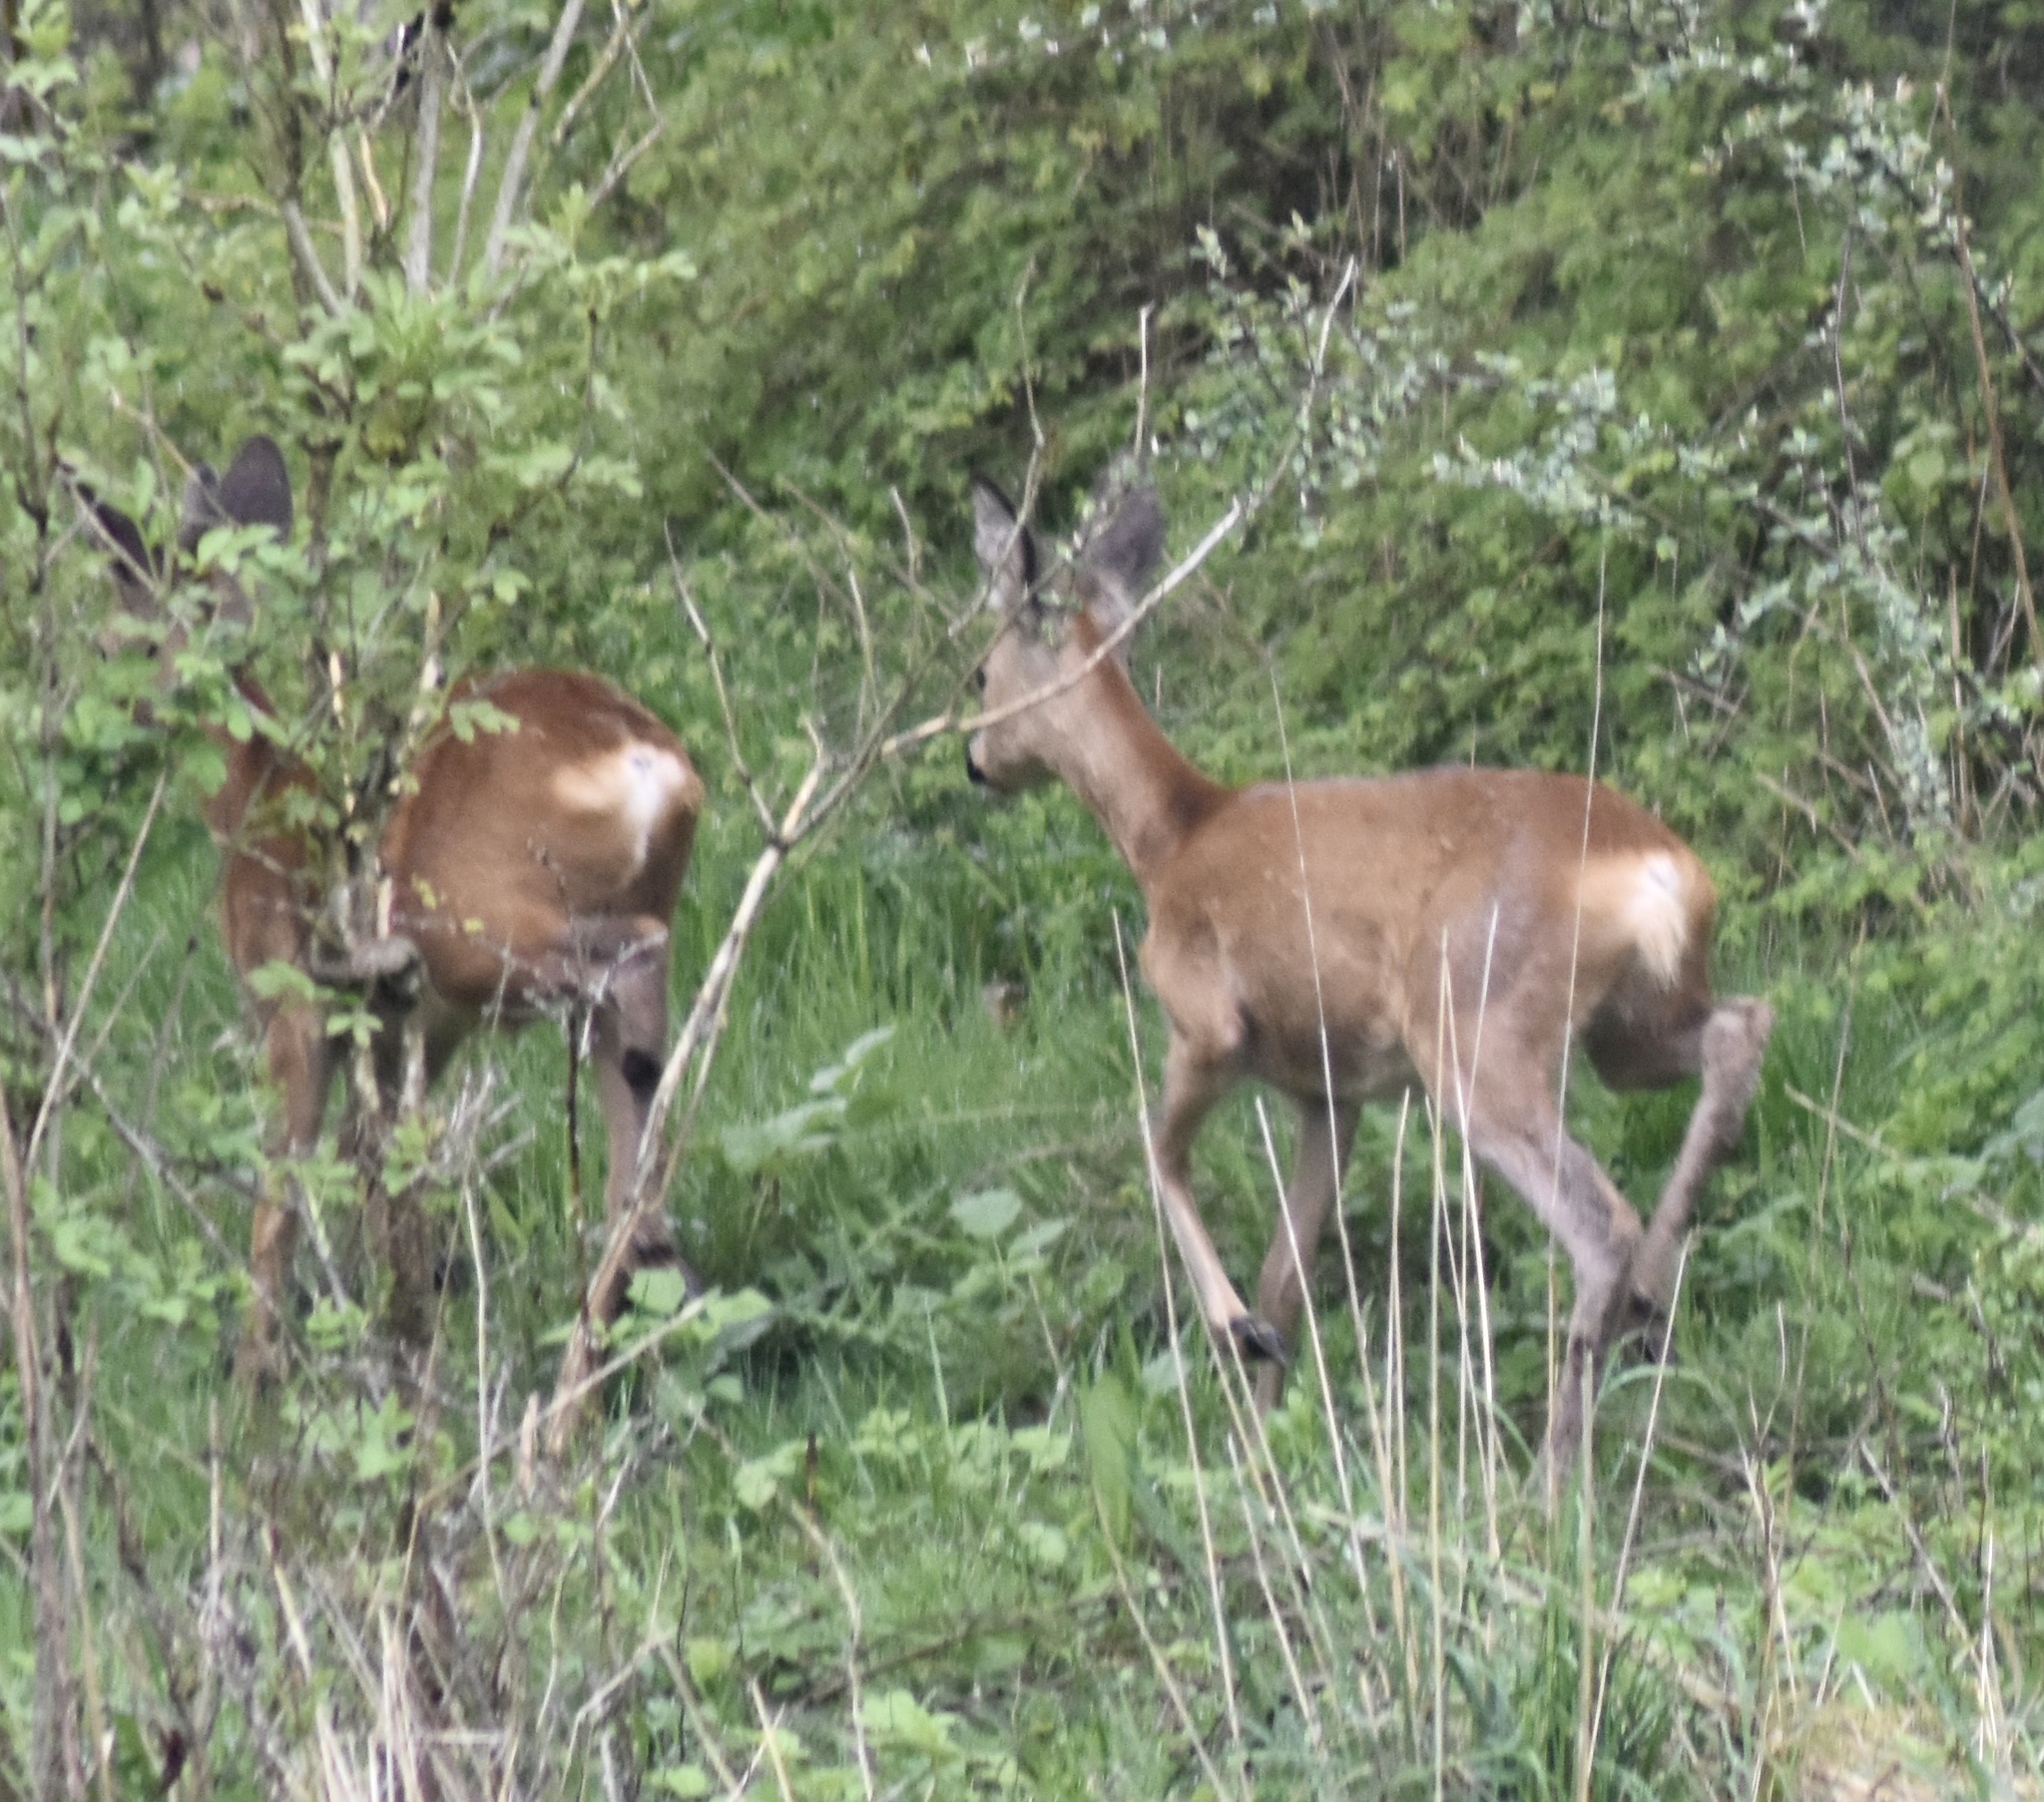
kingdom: Animalia
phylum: Chordata
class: Mammalia
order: Artiodactyla
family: Cervidae
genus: Capreolus
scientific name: Capreolus capreolus
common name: Western roe deer
